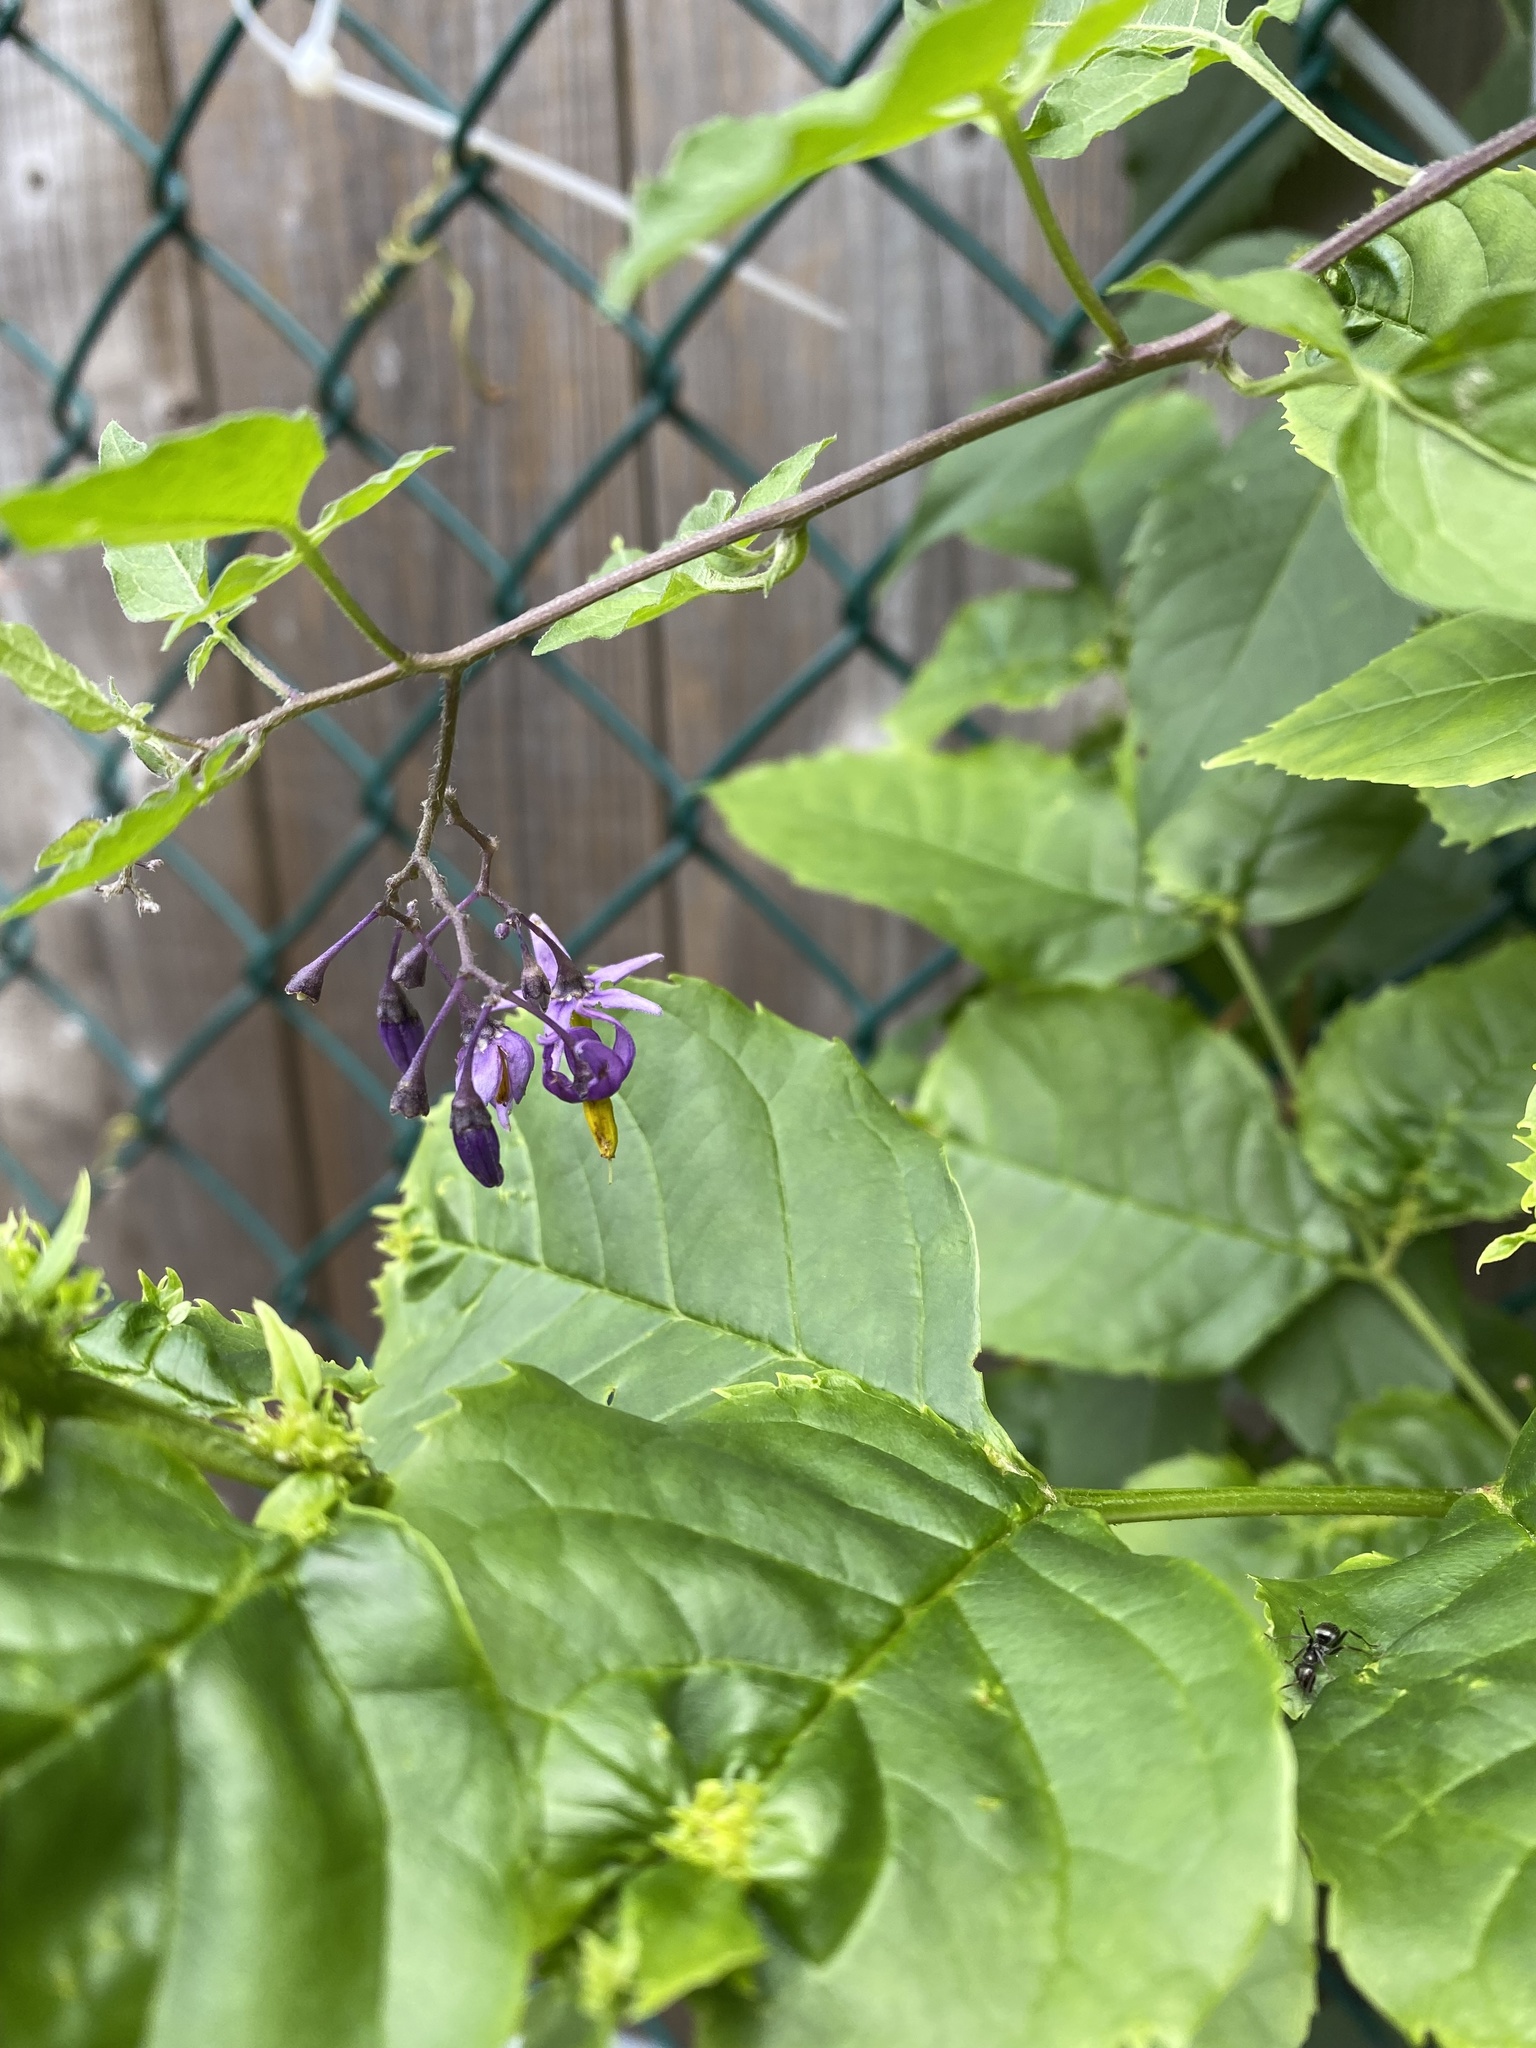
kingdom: Plantae
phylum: Tracheophyta
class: Magnoliopsida
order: Solanales
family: Solanaceae
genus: Solanum
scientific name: Solanum dulcamara
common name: Climbing nightshade
